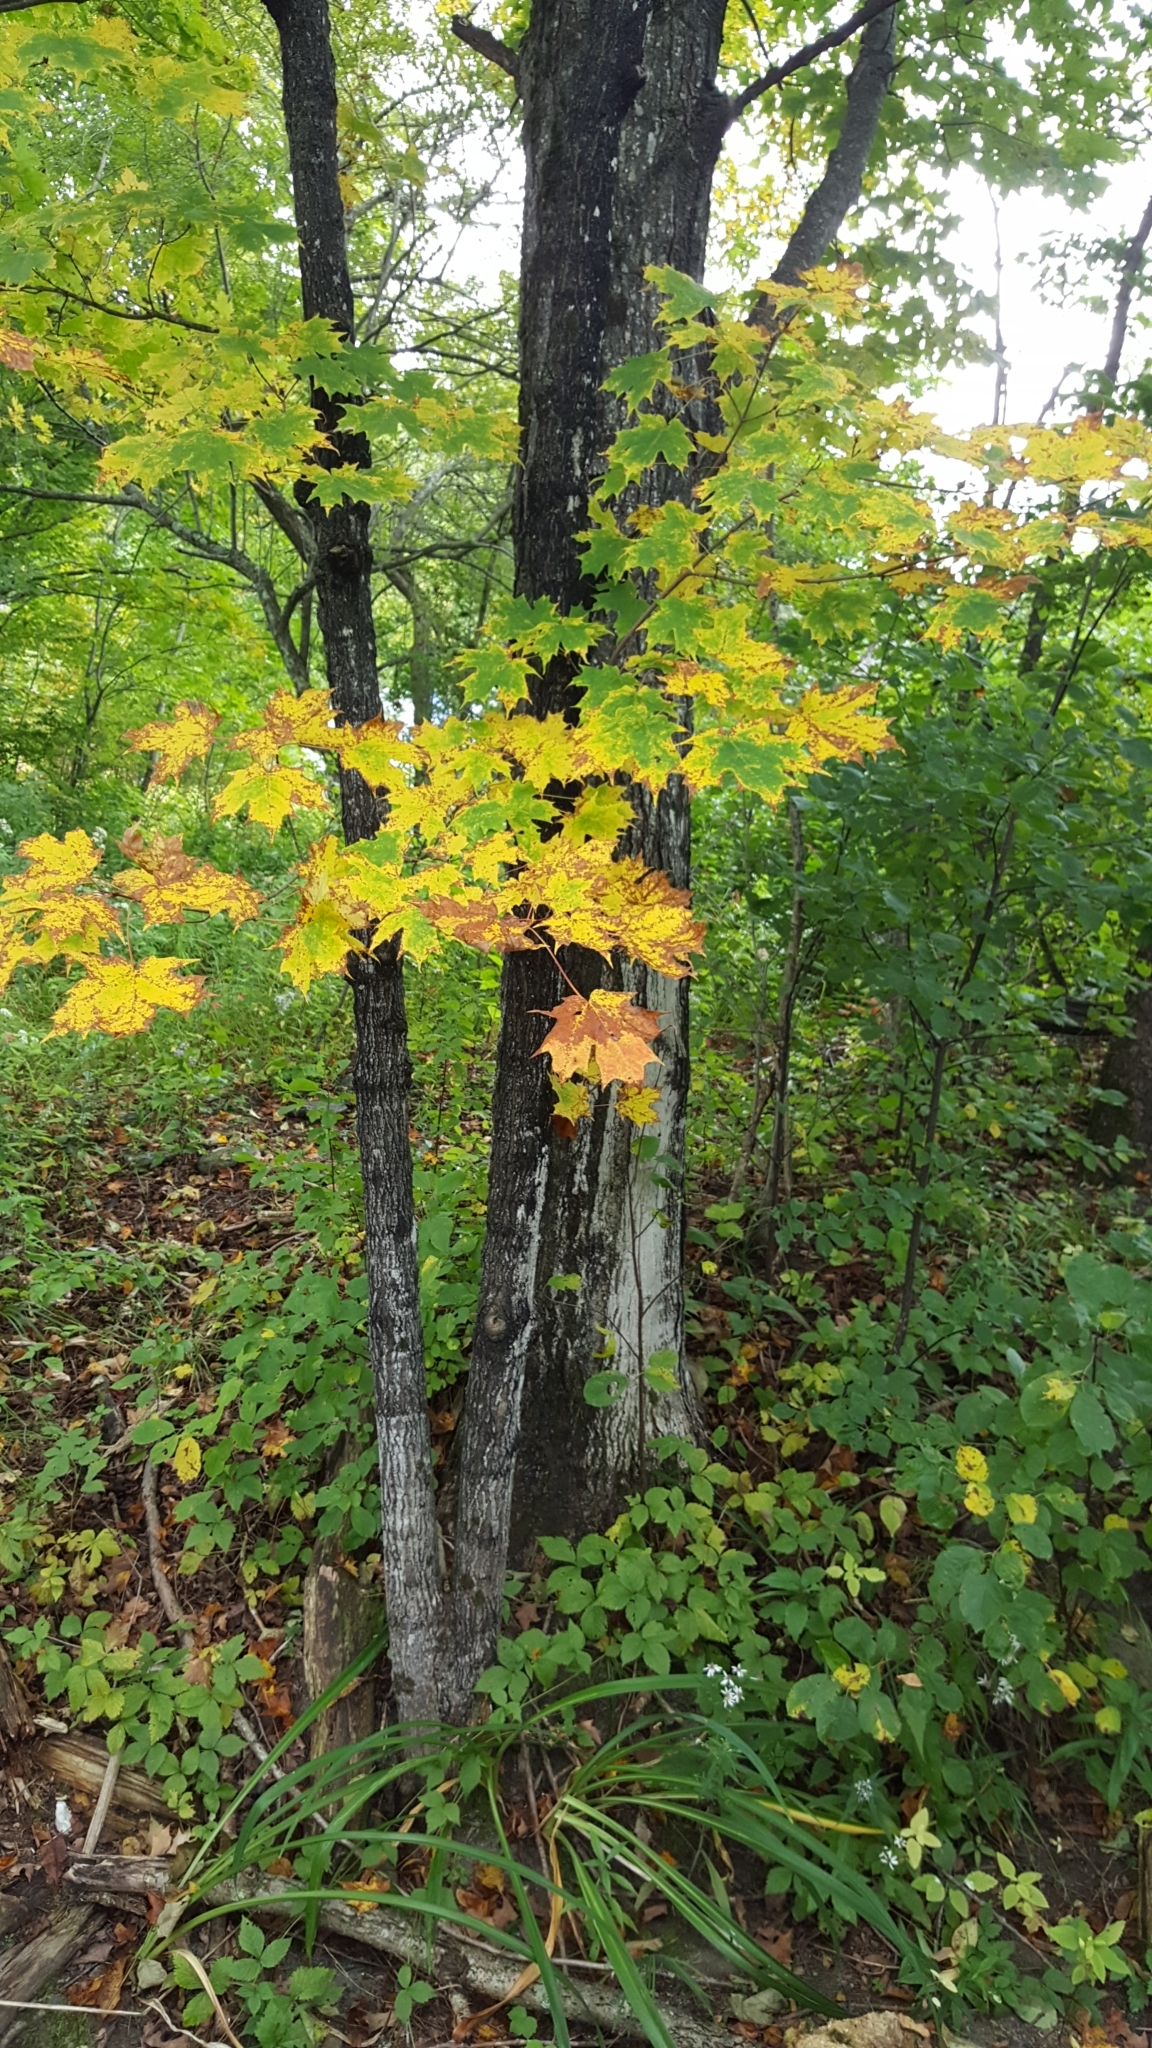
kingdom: Plantae
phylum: Tracheophyta
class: Magnoliopsida
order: Sapindales
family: Sapindaceae
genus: Acer
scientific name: Acer saccharum
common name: Sugar maple
